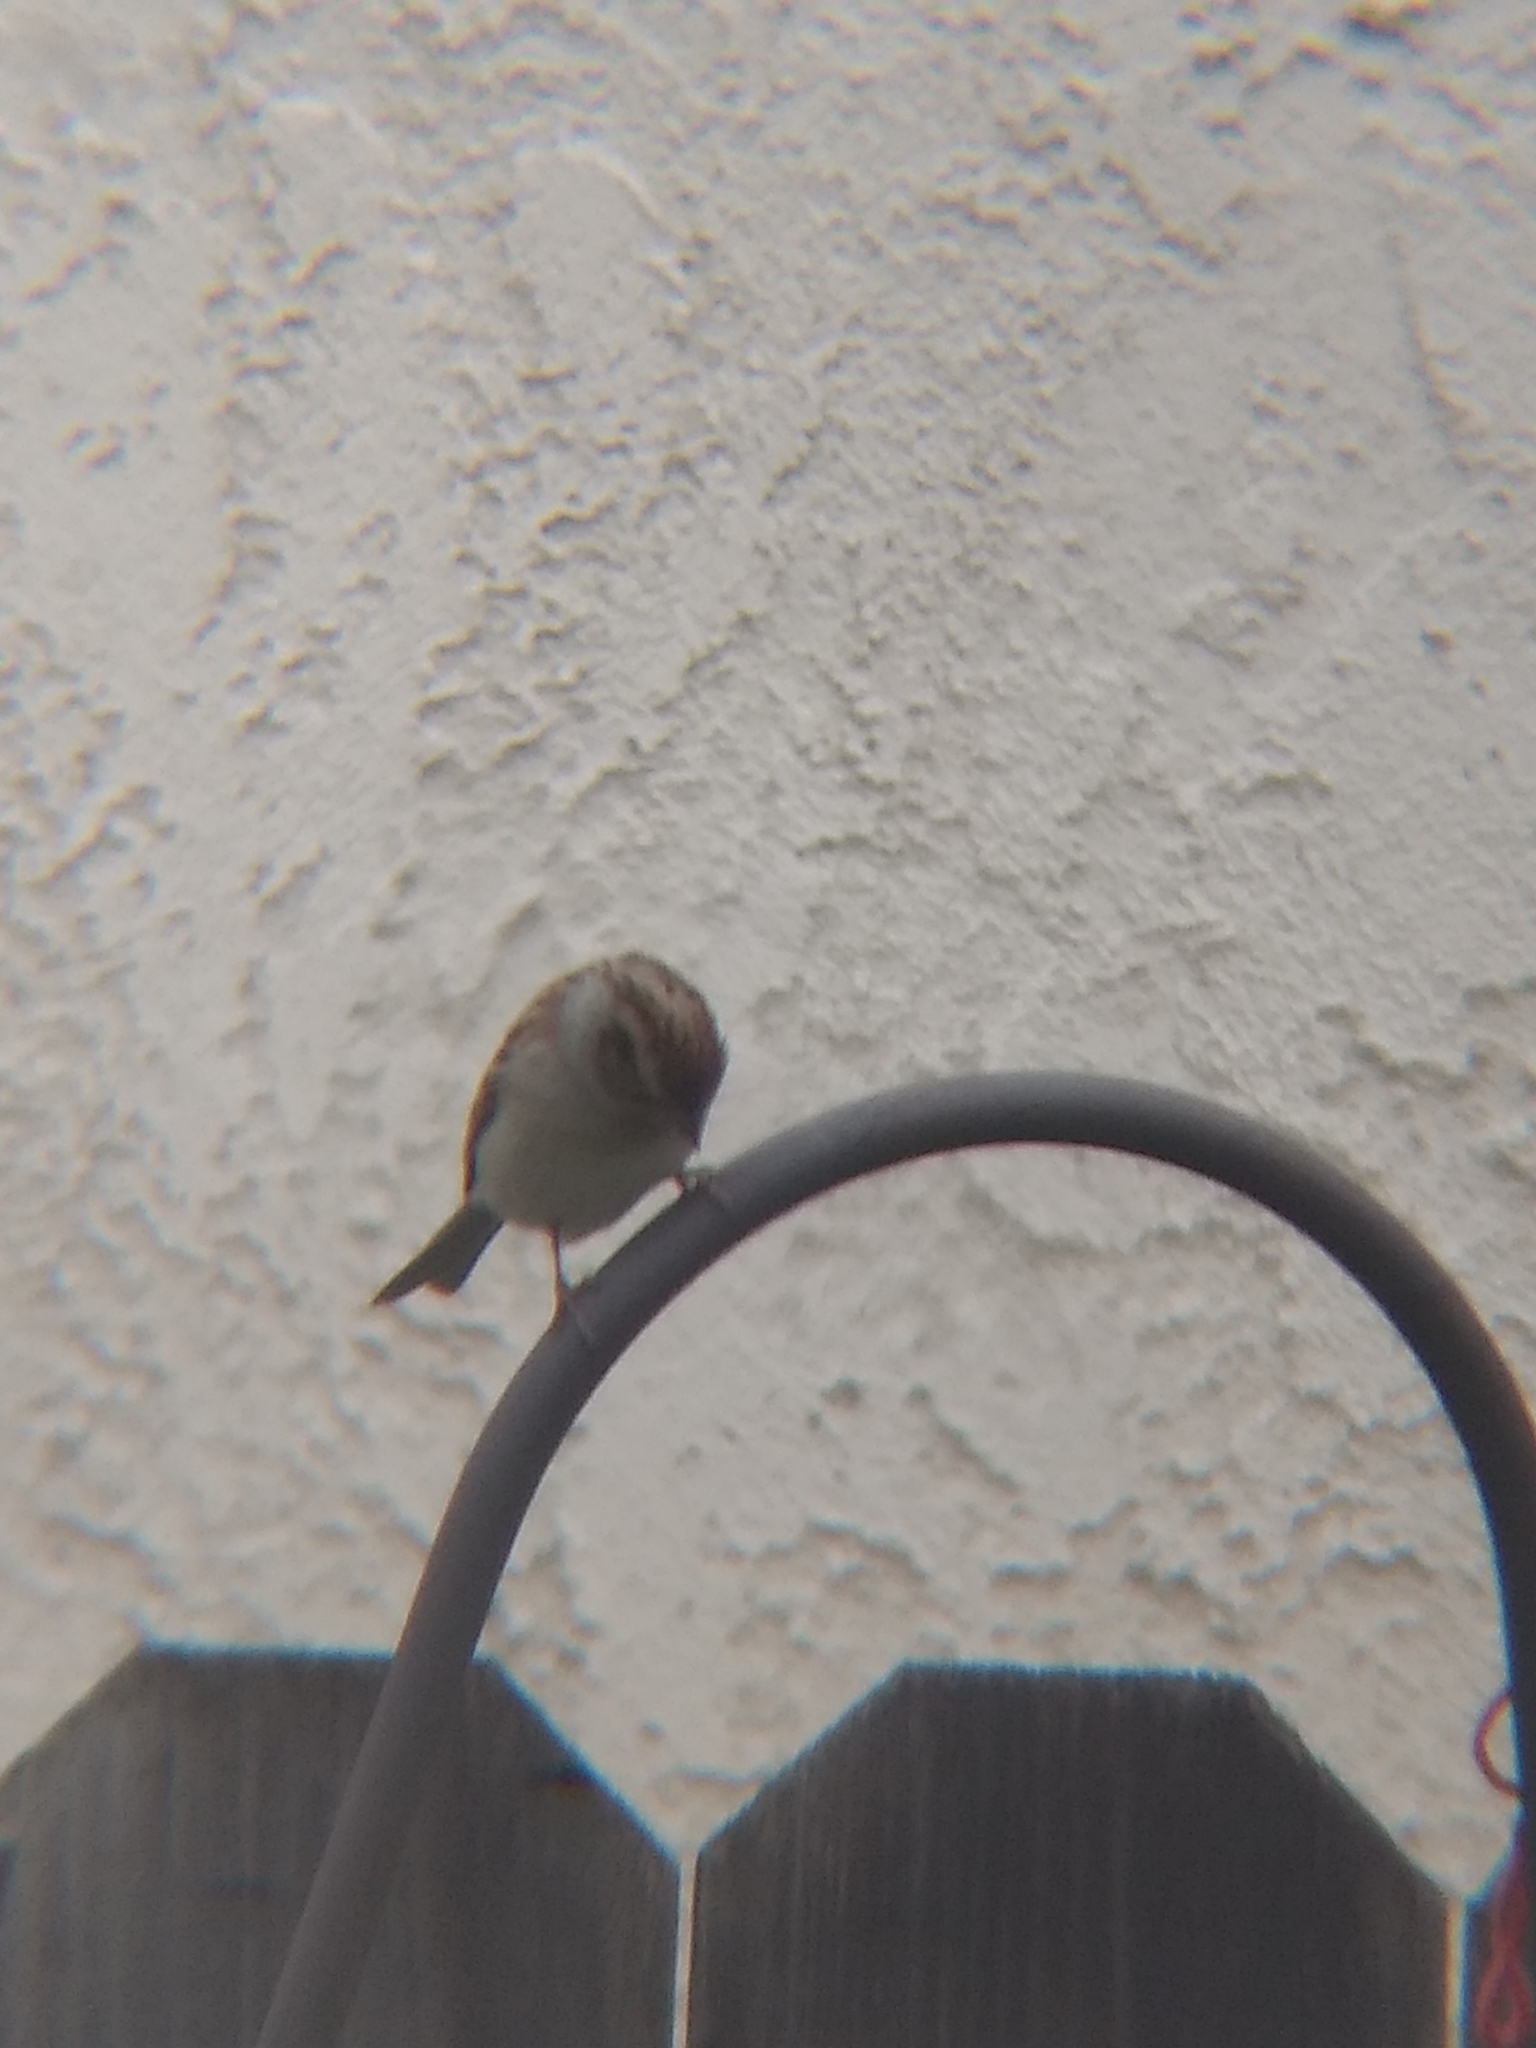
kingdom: Animalia
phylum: Chordata
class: Aves
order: Passeriformes
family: Passerellidae
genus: Spizella
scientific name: Spizella passerina
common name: Chipping sparrow
